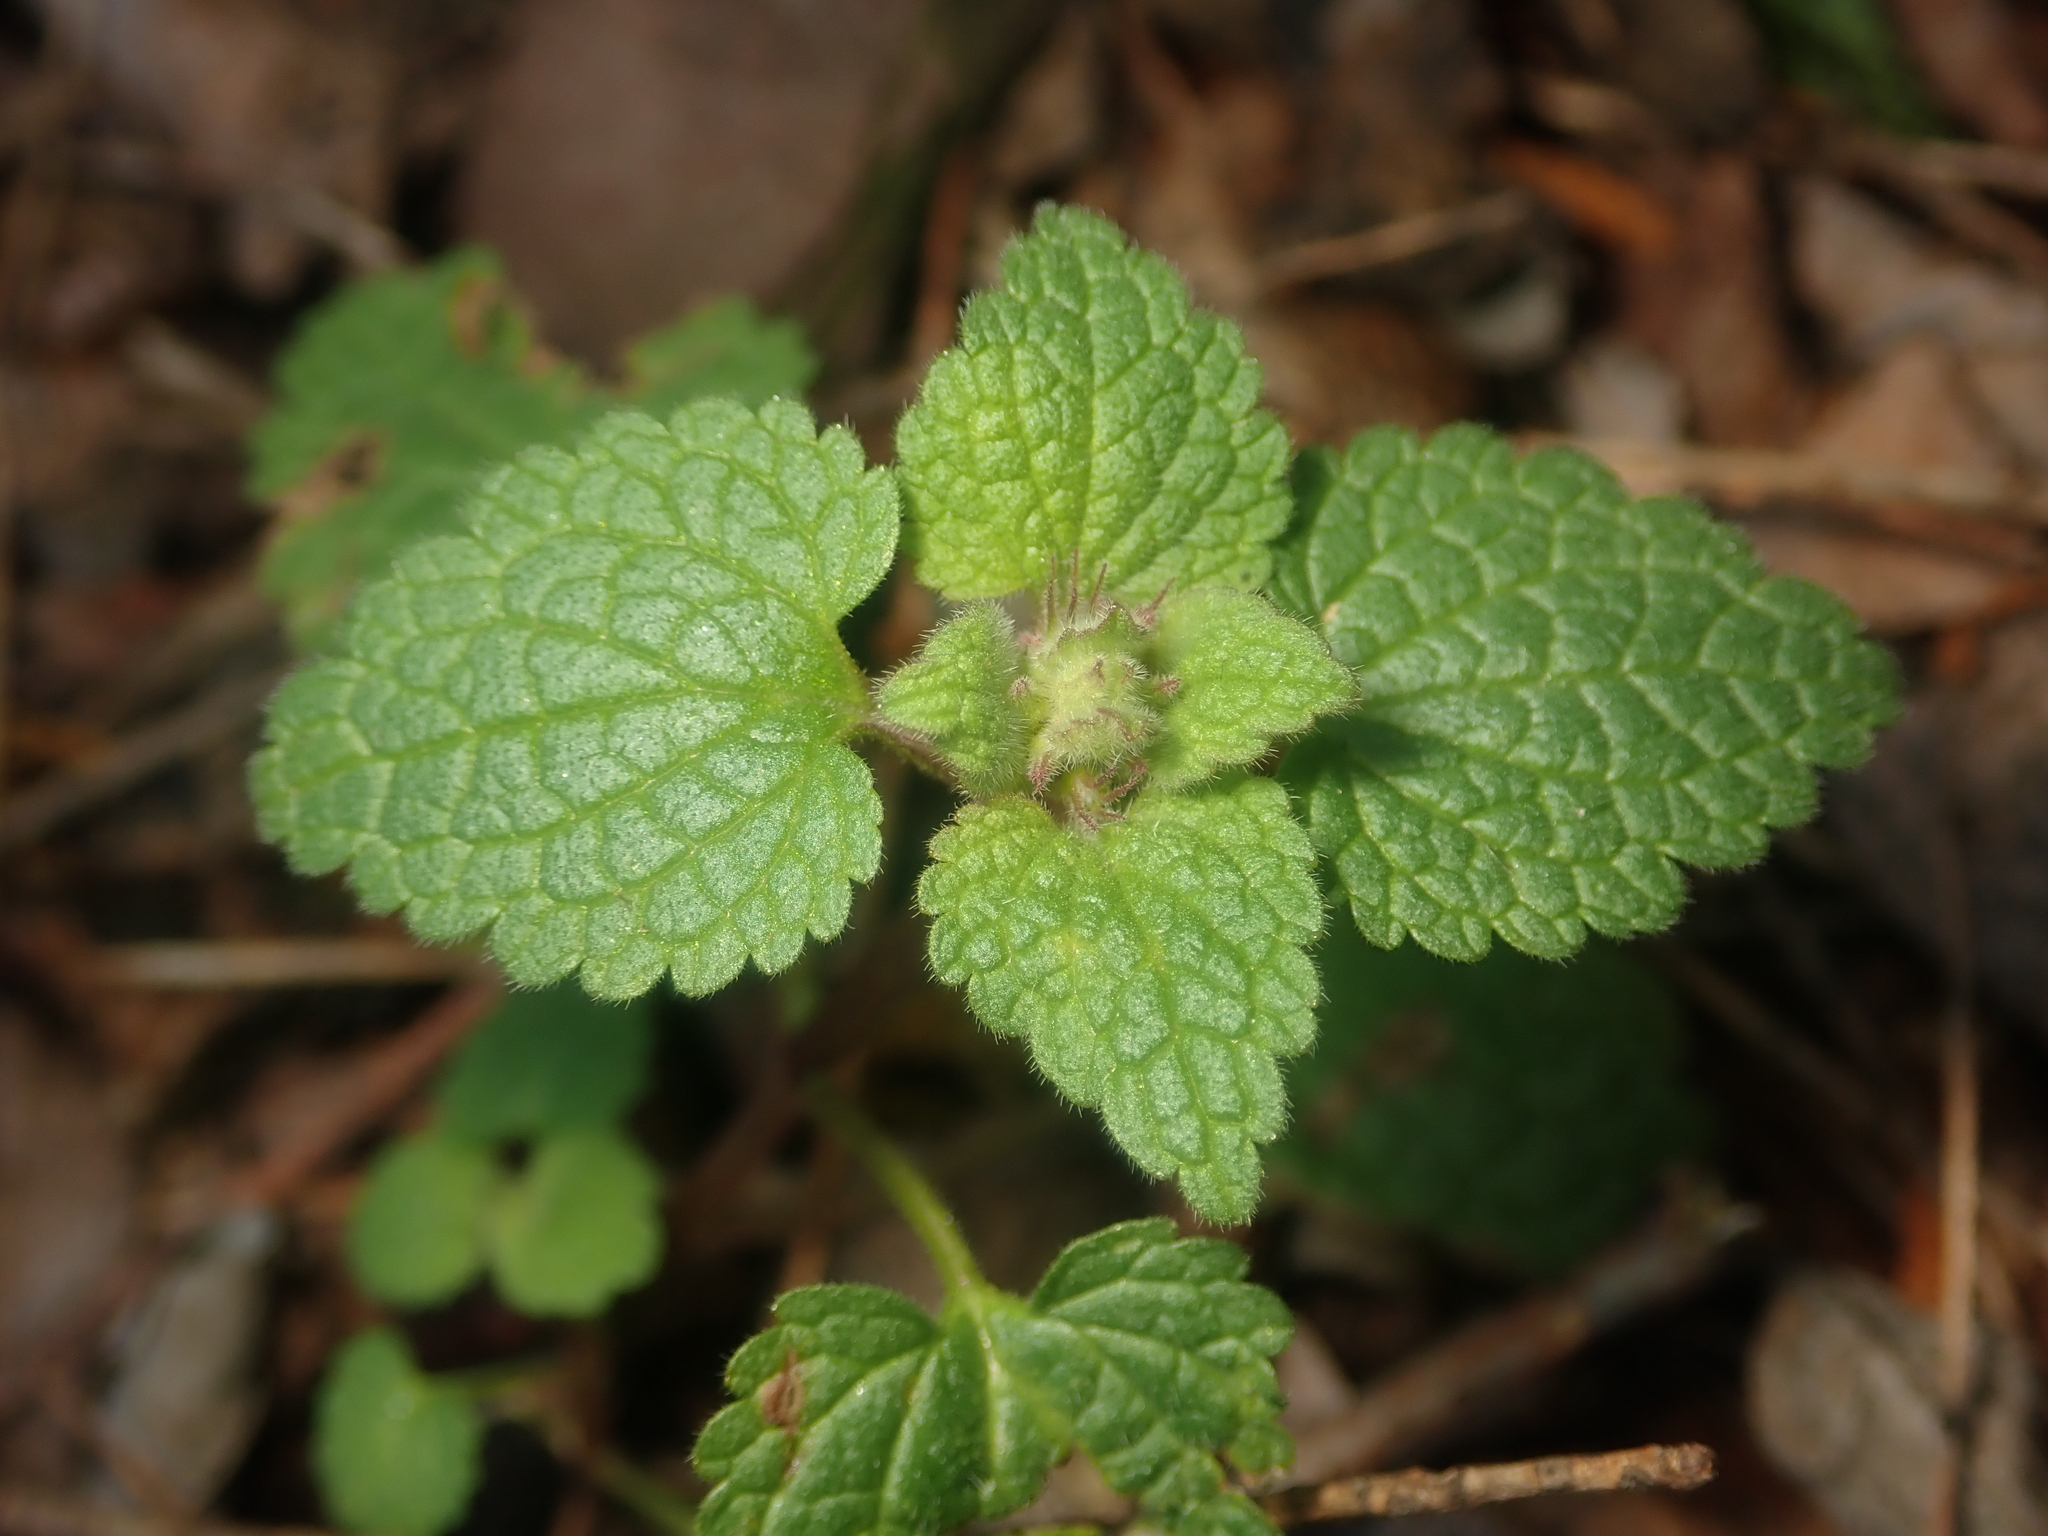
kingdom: Plantae
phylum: Tracheophyta
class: Magnoliopsida
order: Lamiales
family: Lamiaceae
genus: Lamium
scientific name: Lamium purpureum
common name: Red dead-nettle
